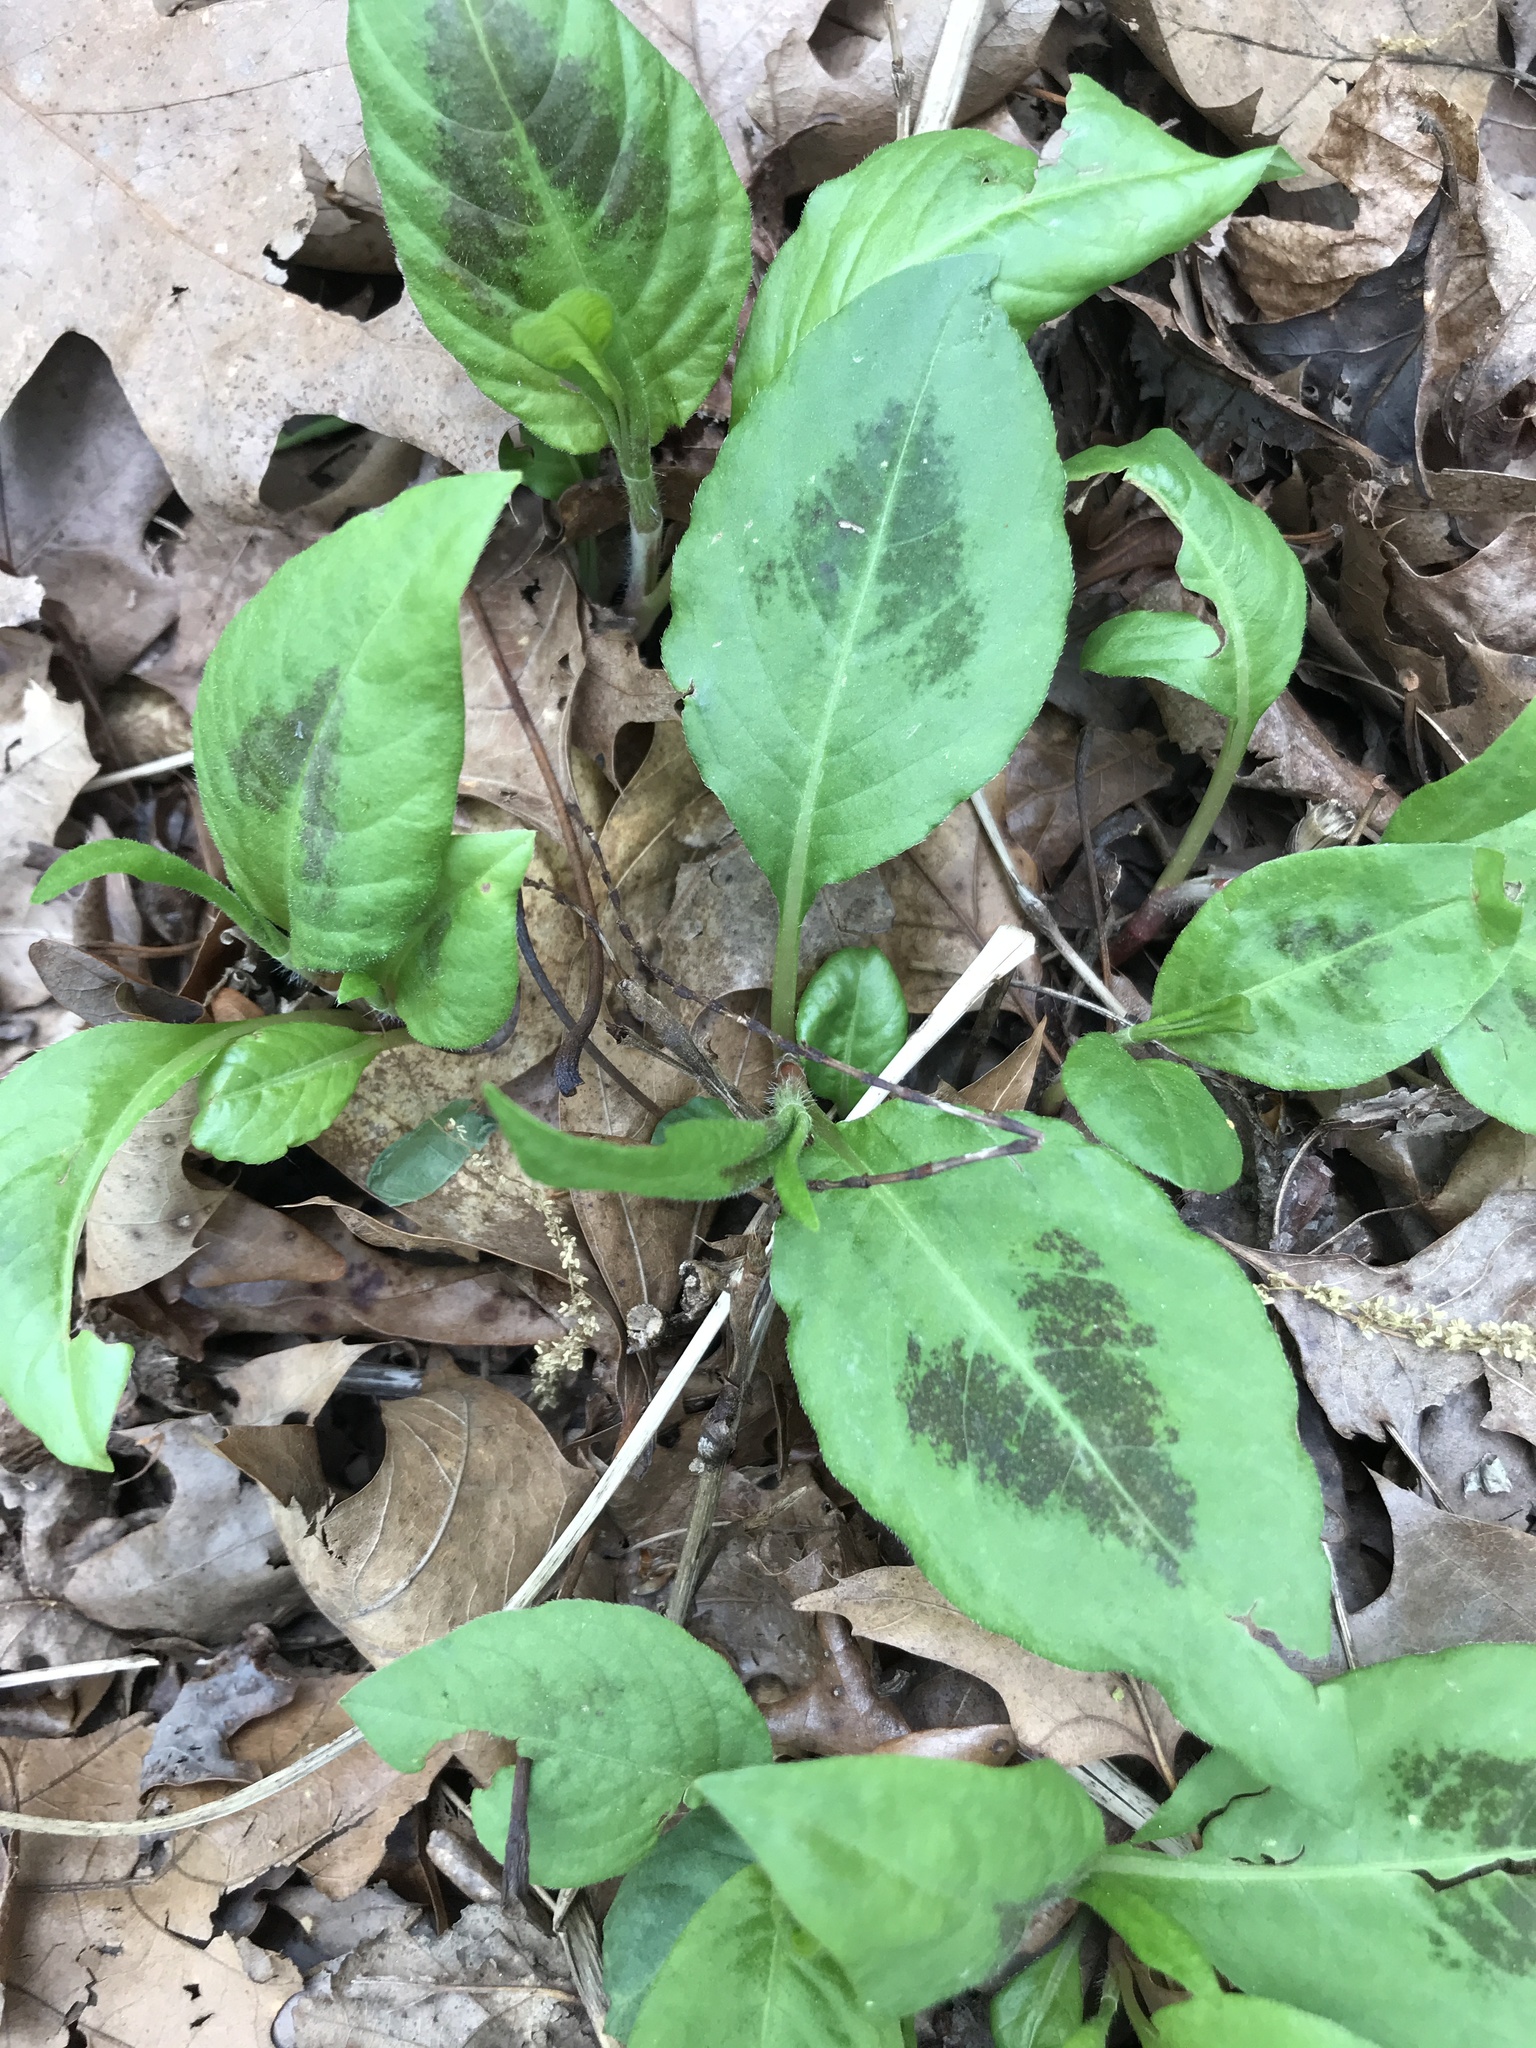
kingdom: Plantae
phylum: Tracheophyta
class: Magnoliopsida
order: Caryophyllales
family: Polygonaceae
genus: Persicaria
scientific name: Persicaria virginiana
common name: Jumpseed
